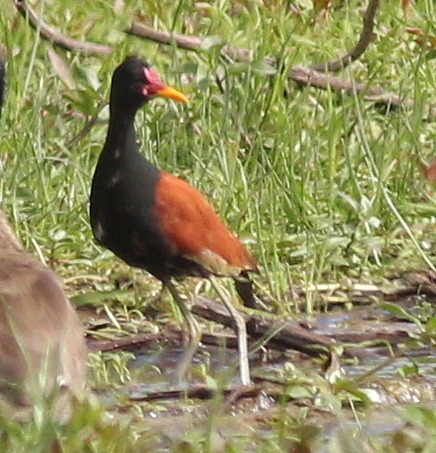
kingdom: Animalia
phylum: Chordata
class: Aves
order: Charadriiformes
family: Jacanidae
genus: Jacana
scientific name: Jacana jacana
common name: Wattled jacana
